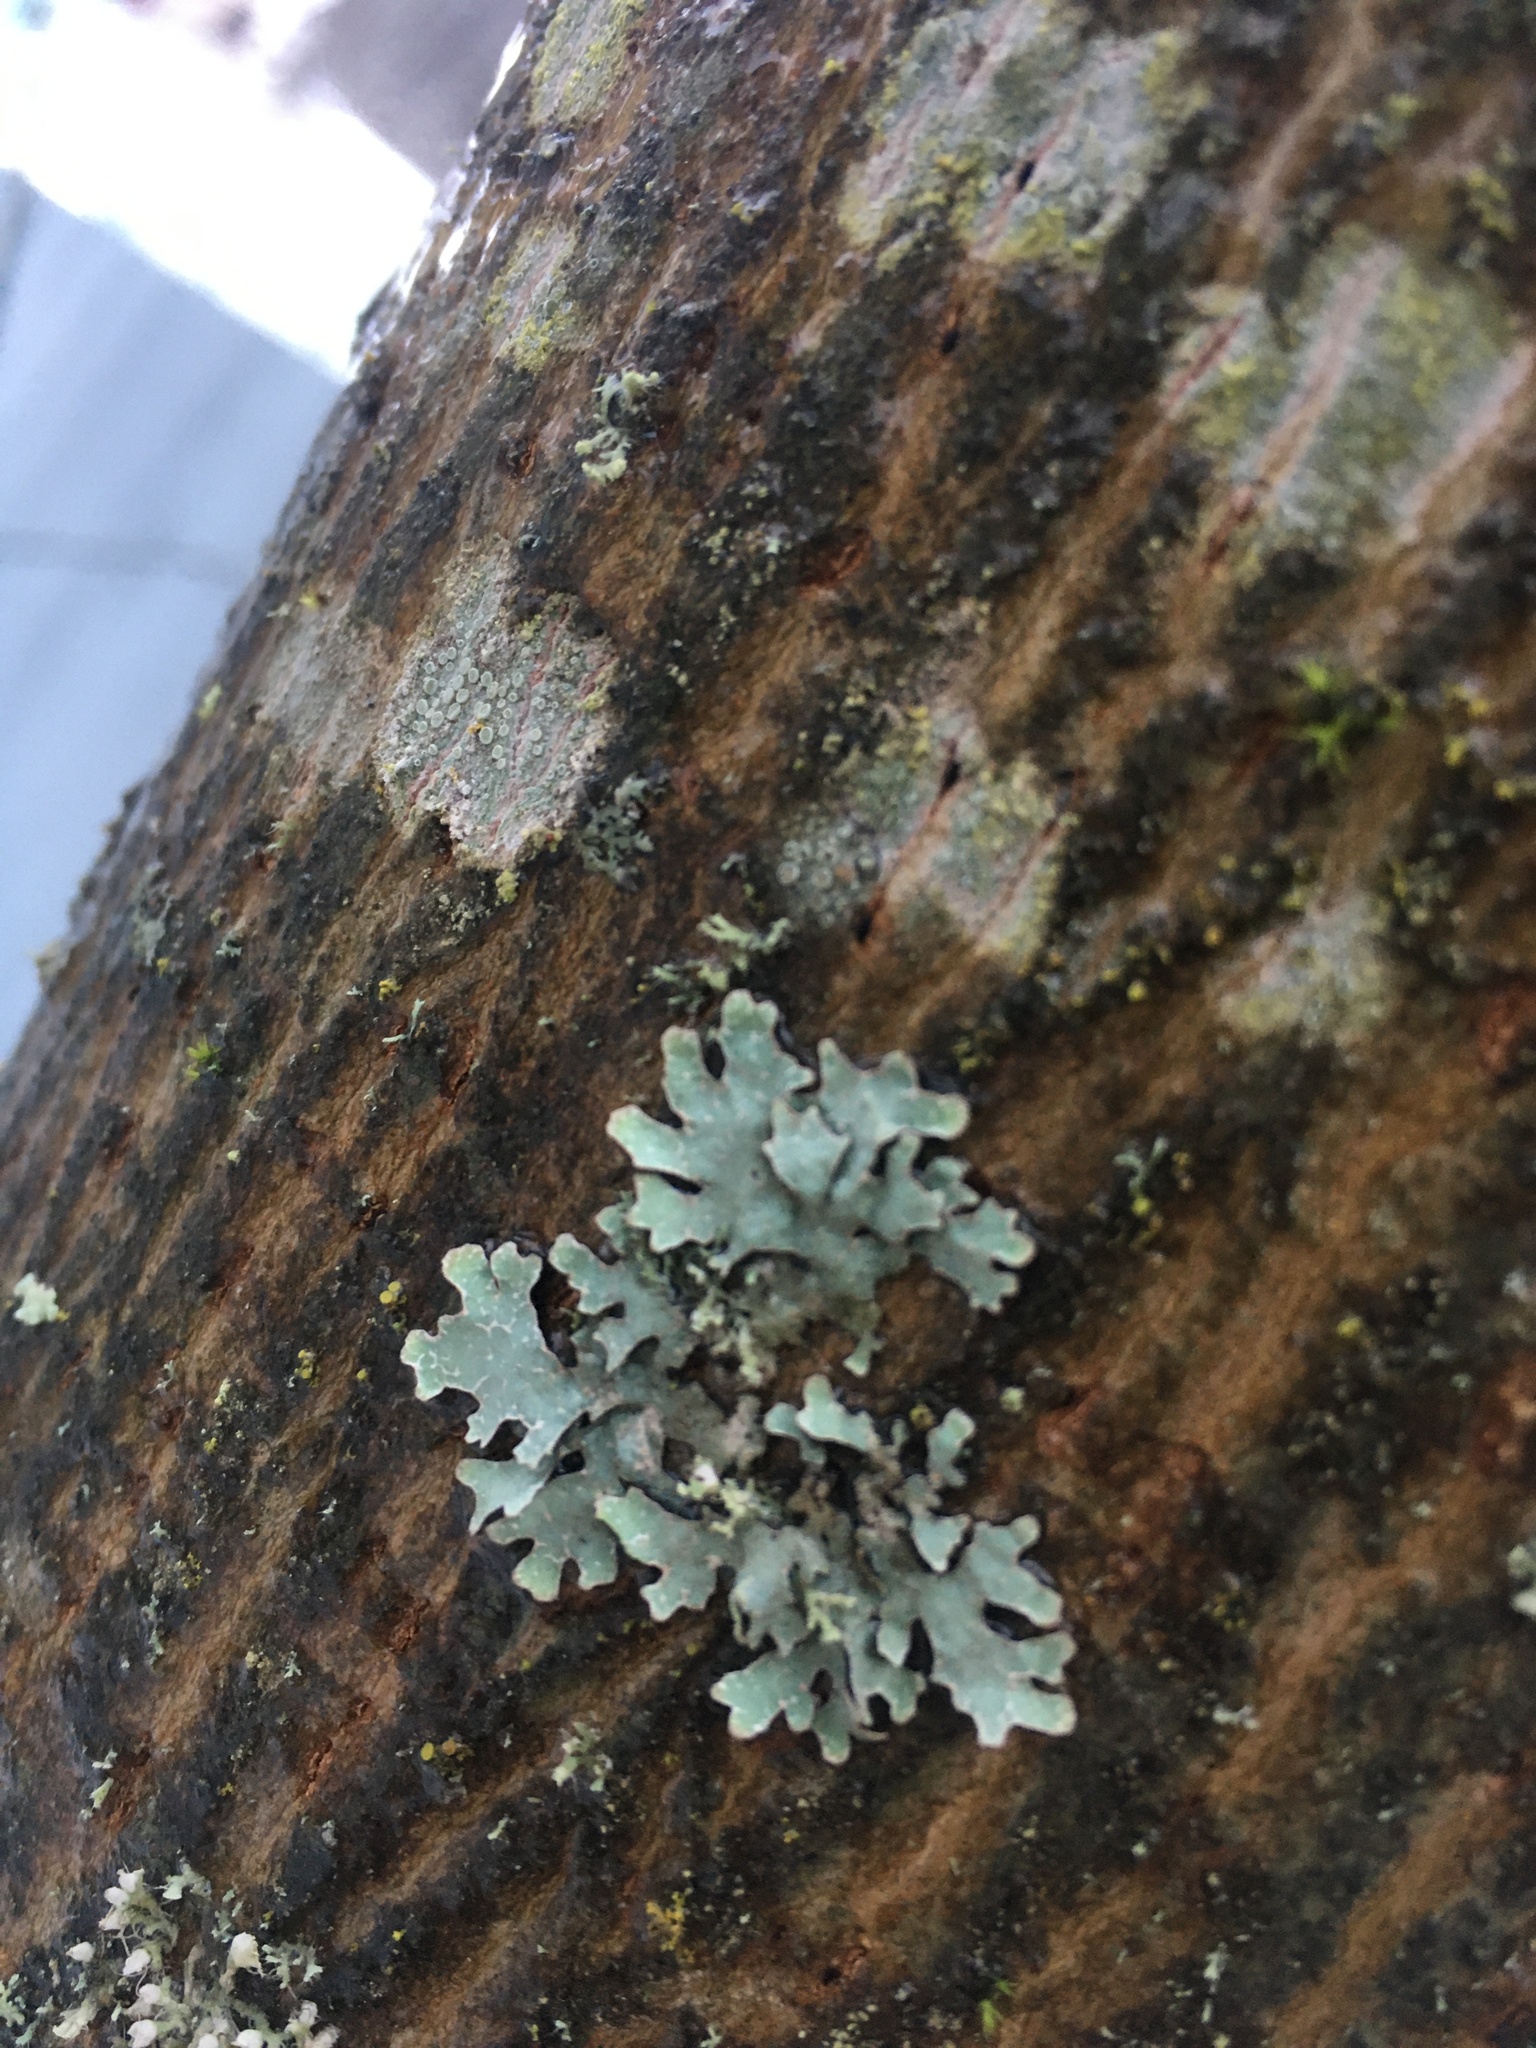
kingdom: Fungi
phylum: Ascomycota
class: Lecanoromycetes
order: Lecanorales
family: Parmeliaceae
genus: Parmelia
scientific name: Parmelia sulcata
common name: Netted shield lichen
